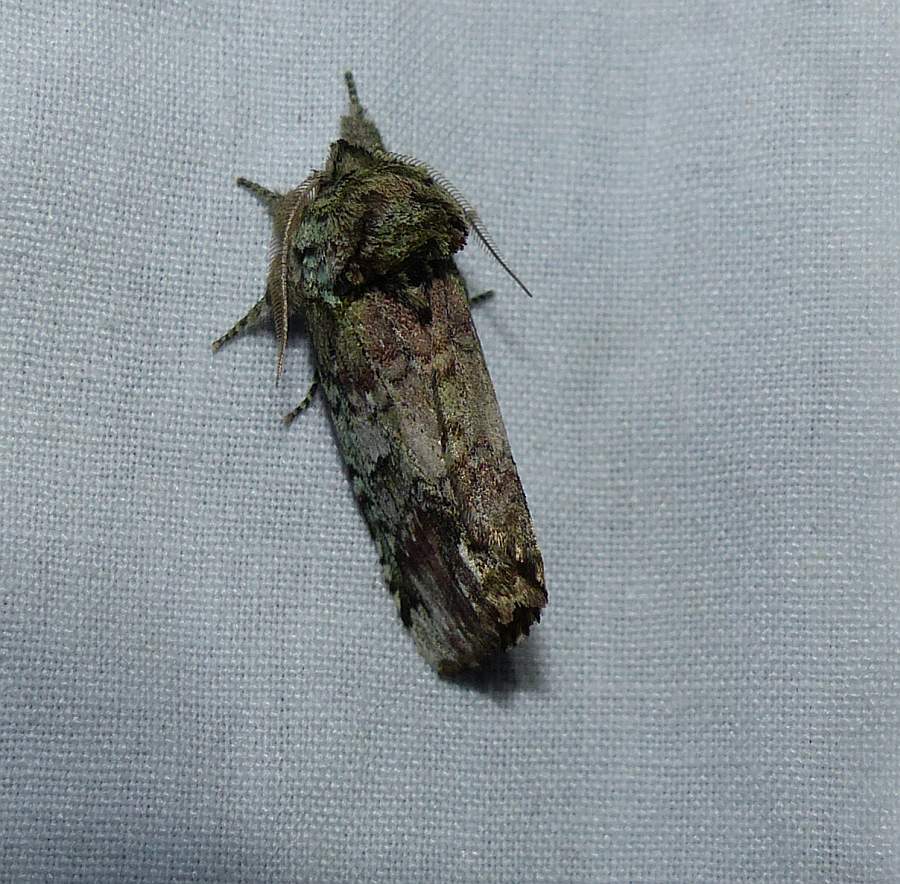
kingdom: Animalia
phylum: Arthropoda
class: Insecta
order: Lepidoptera
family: Notodontidae
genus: Schizura
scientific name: Schizura
